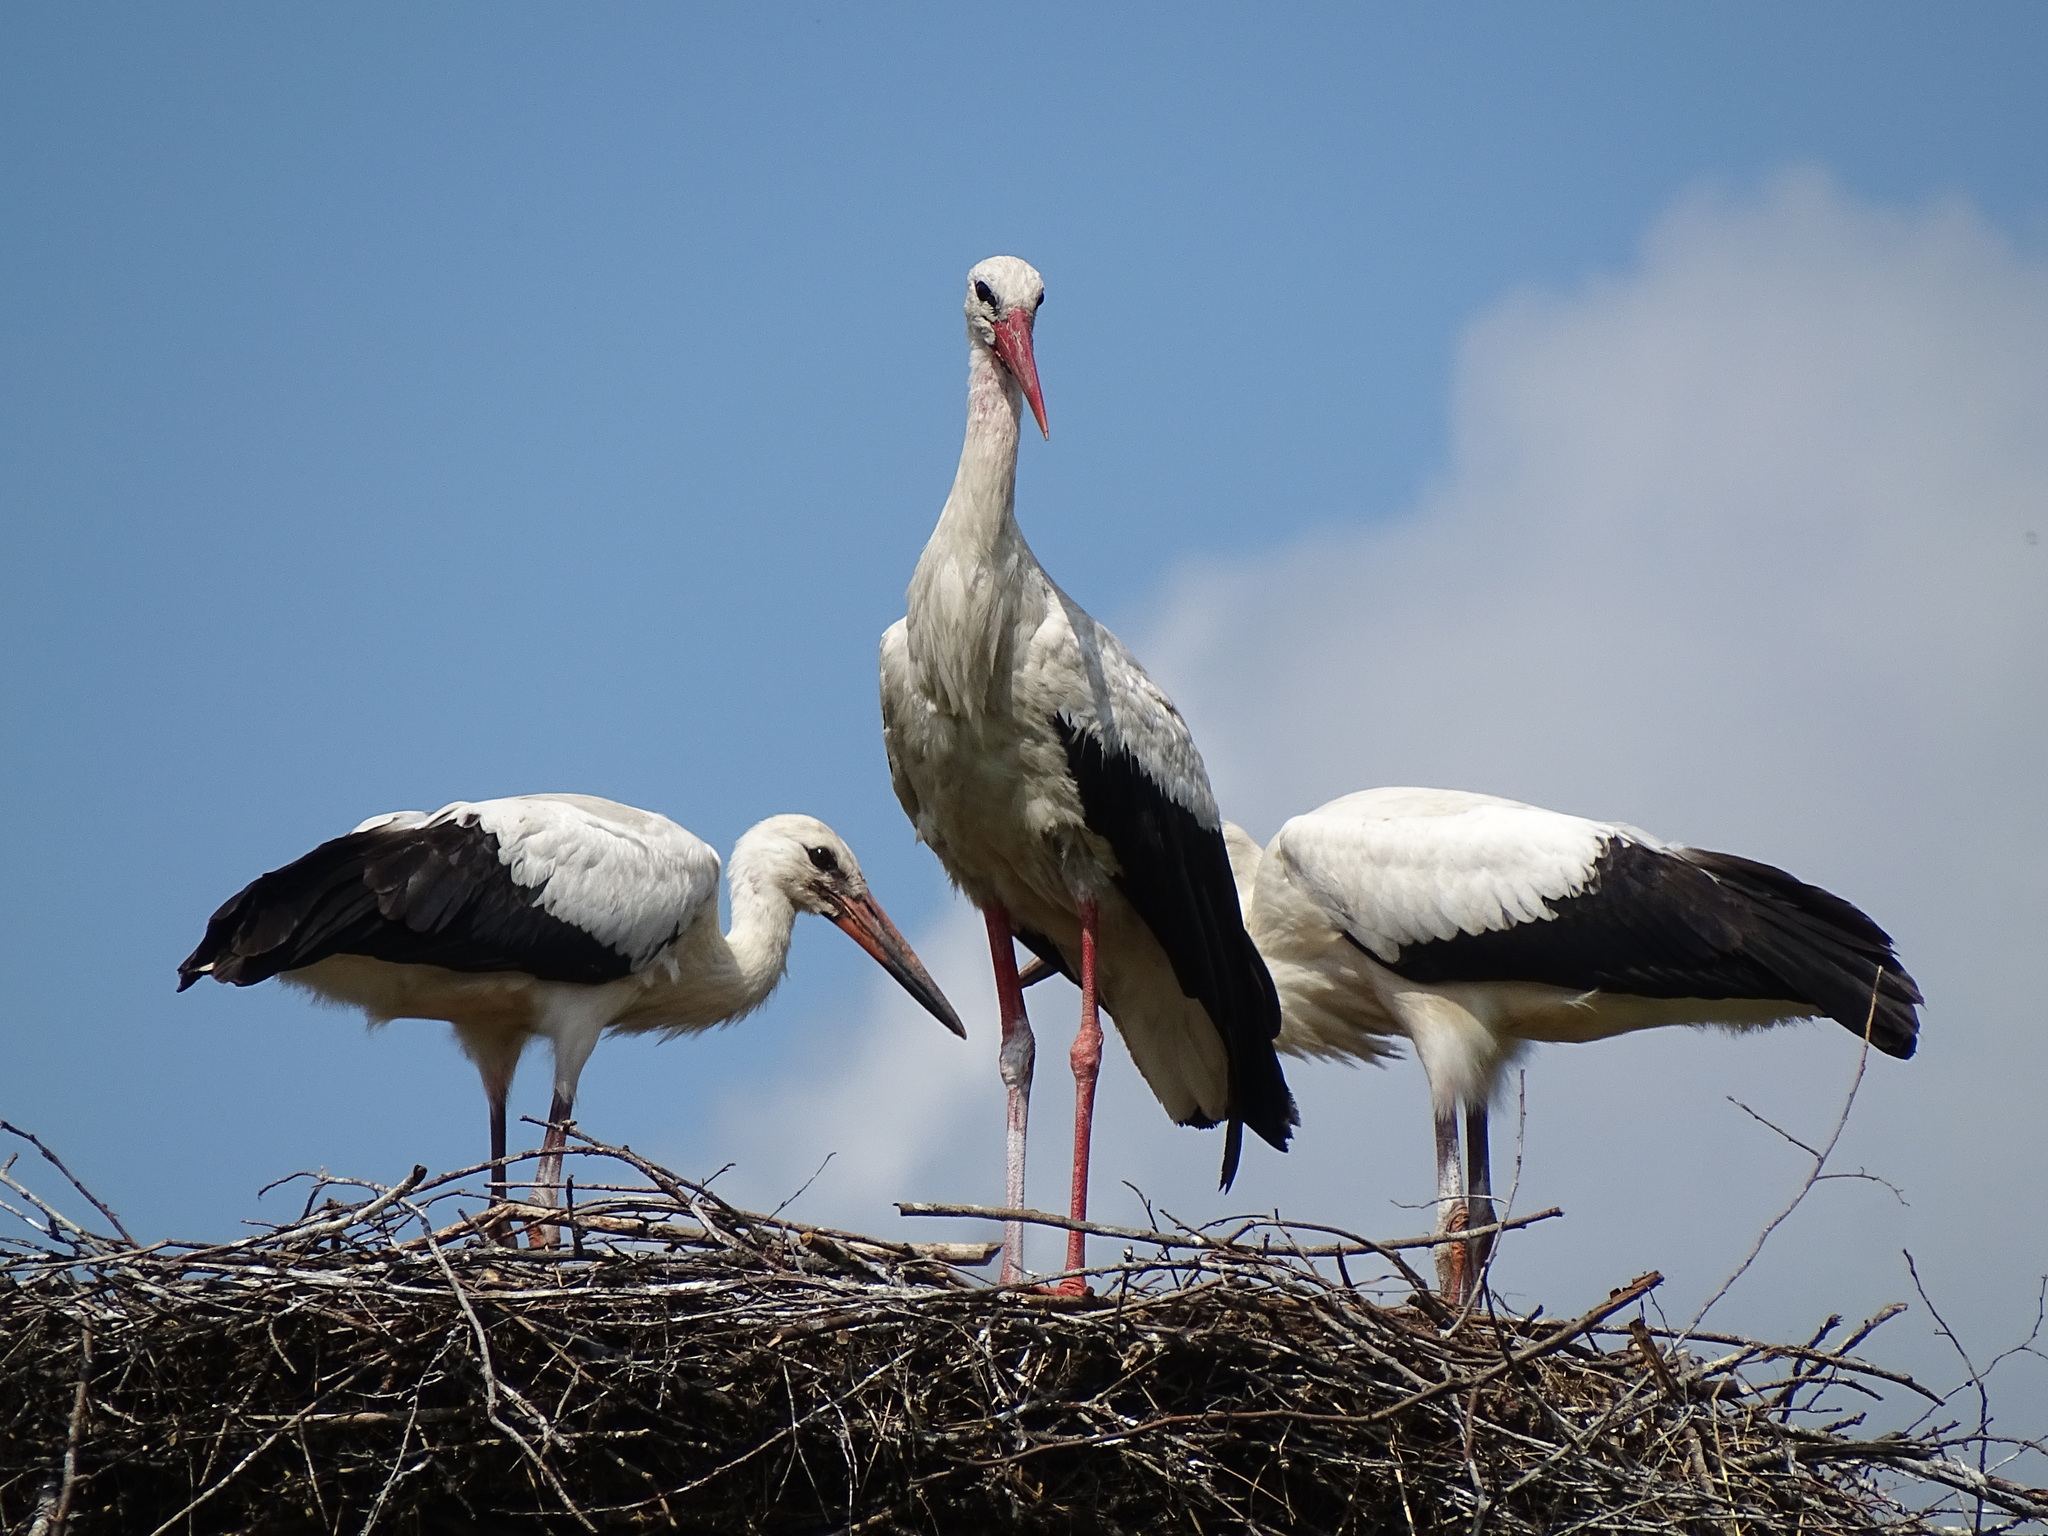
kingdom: Animalia
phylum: Chordata
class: Aves
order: Ciconiiformes
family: Ciconiidae
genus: Ciconia
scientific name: Ciconia ciconia
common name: White stork
